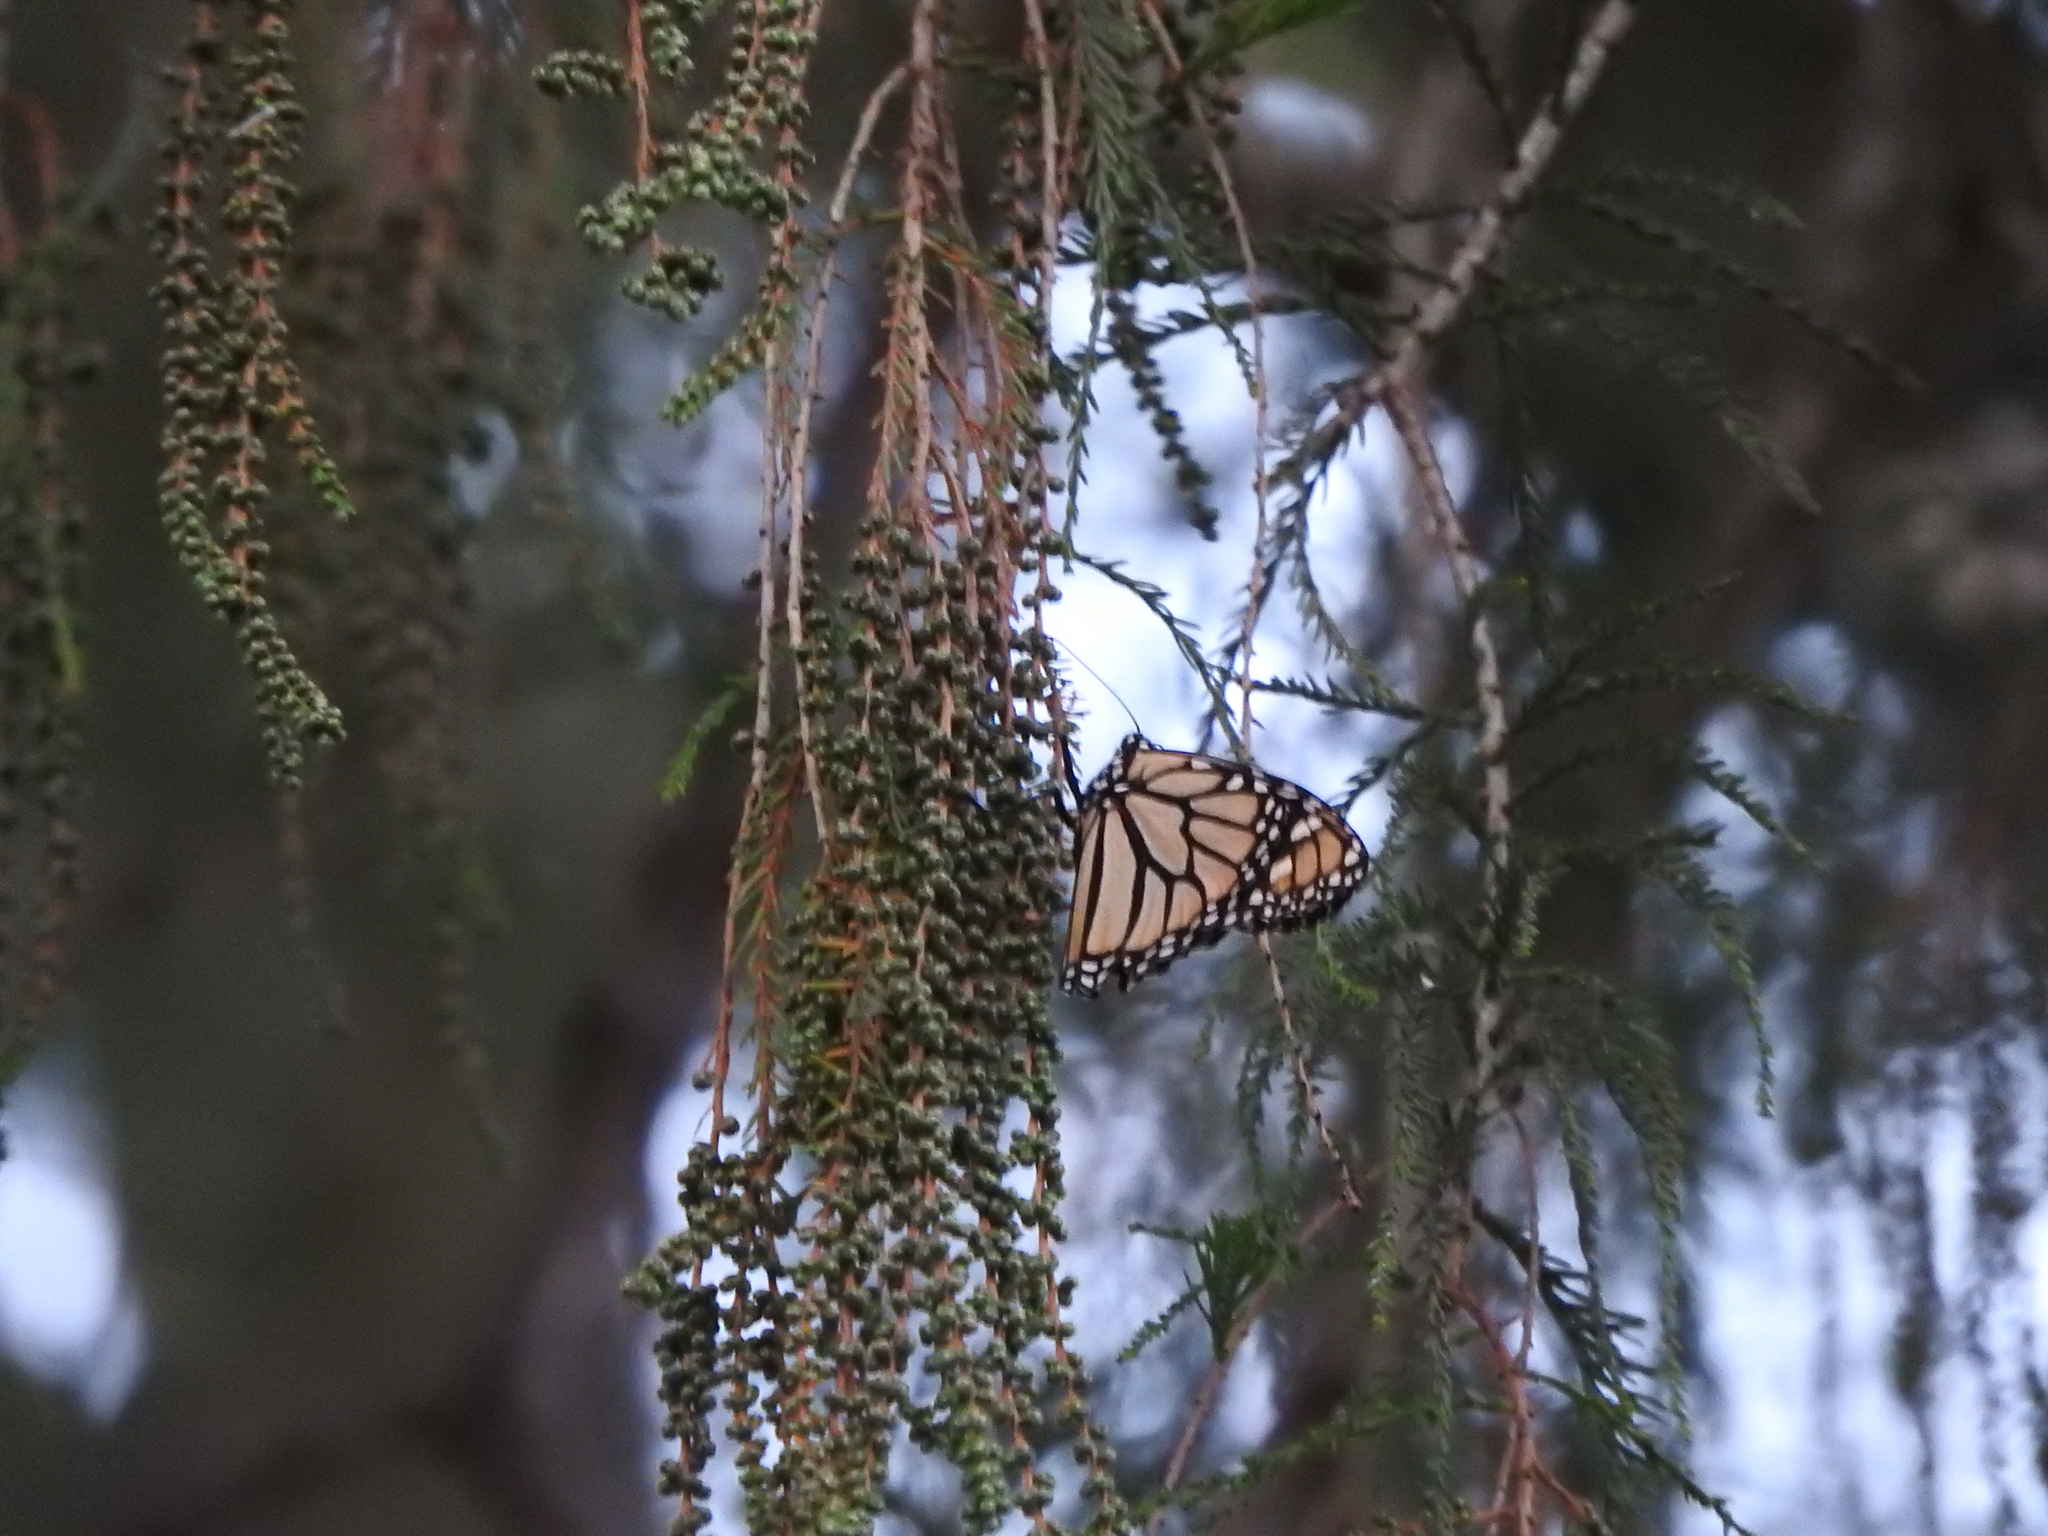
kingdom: Animalia
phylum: Arthropoda
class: Insecta
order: Lepidoptera
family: Nymphalidae
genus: Danaus
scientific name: Danaus plexippus
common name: Monarch
